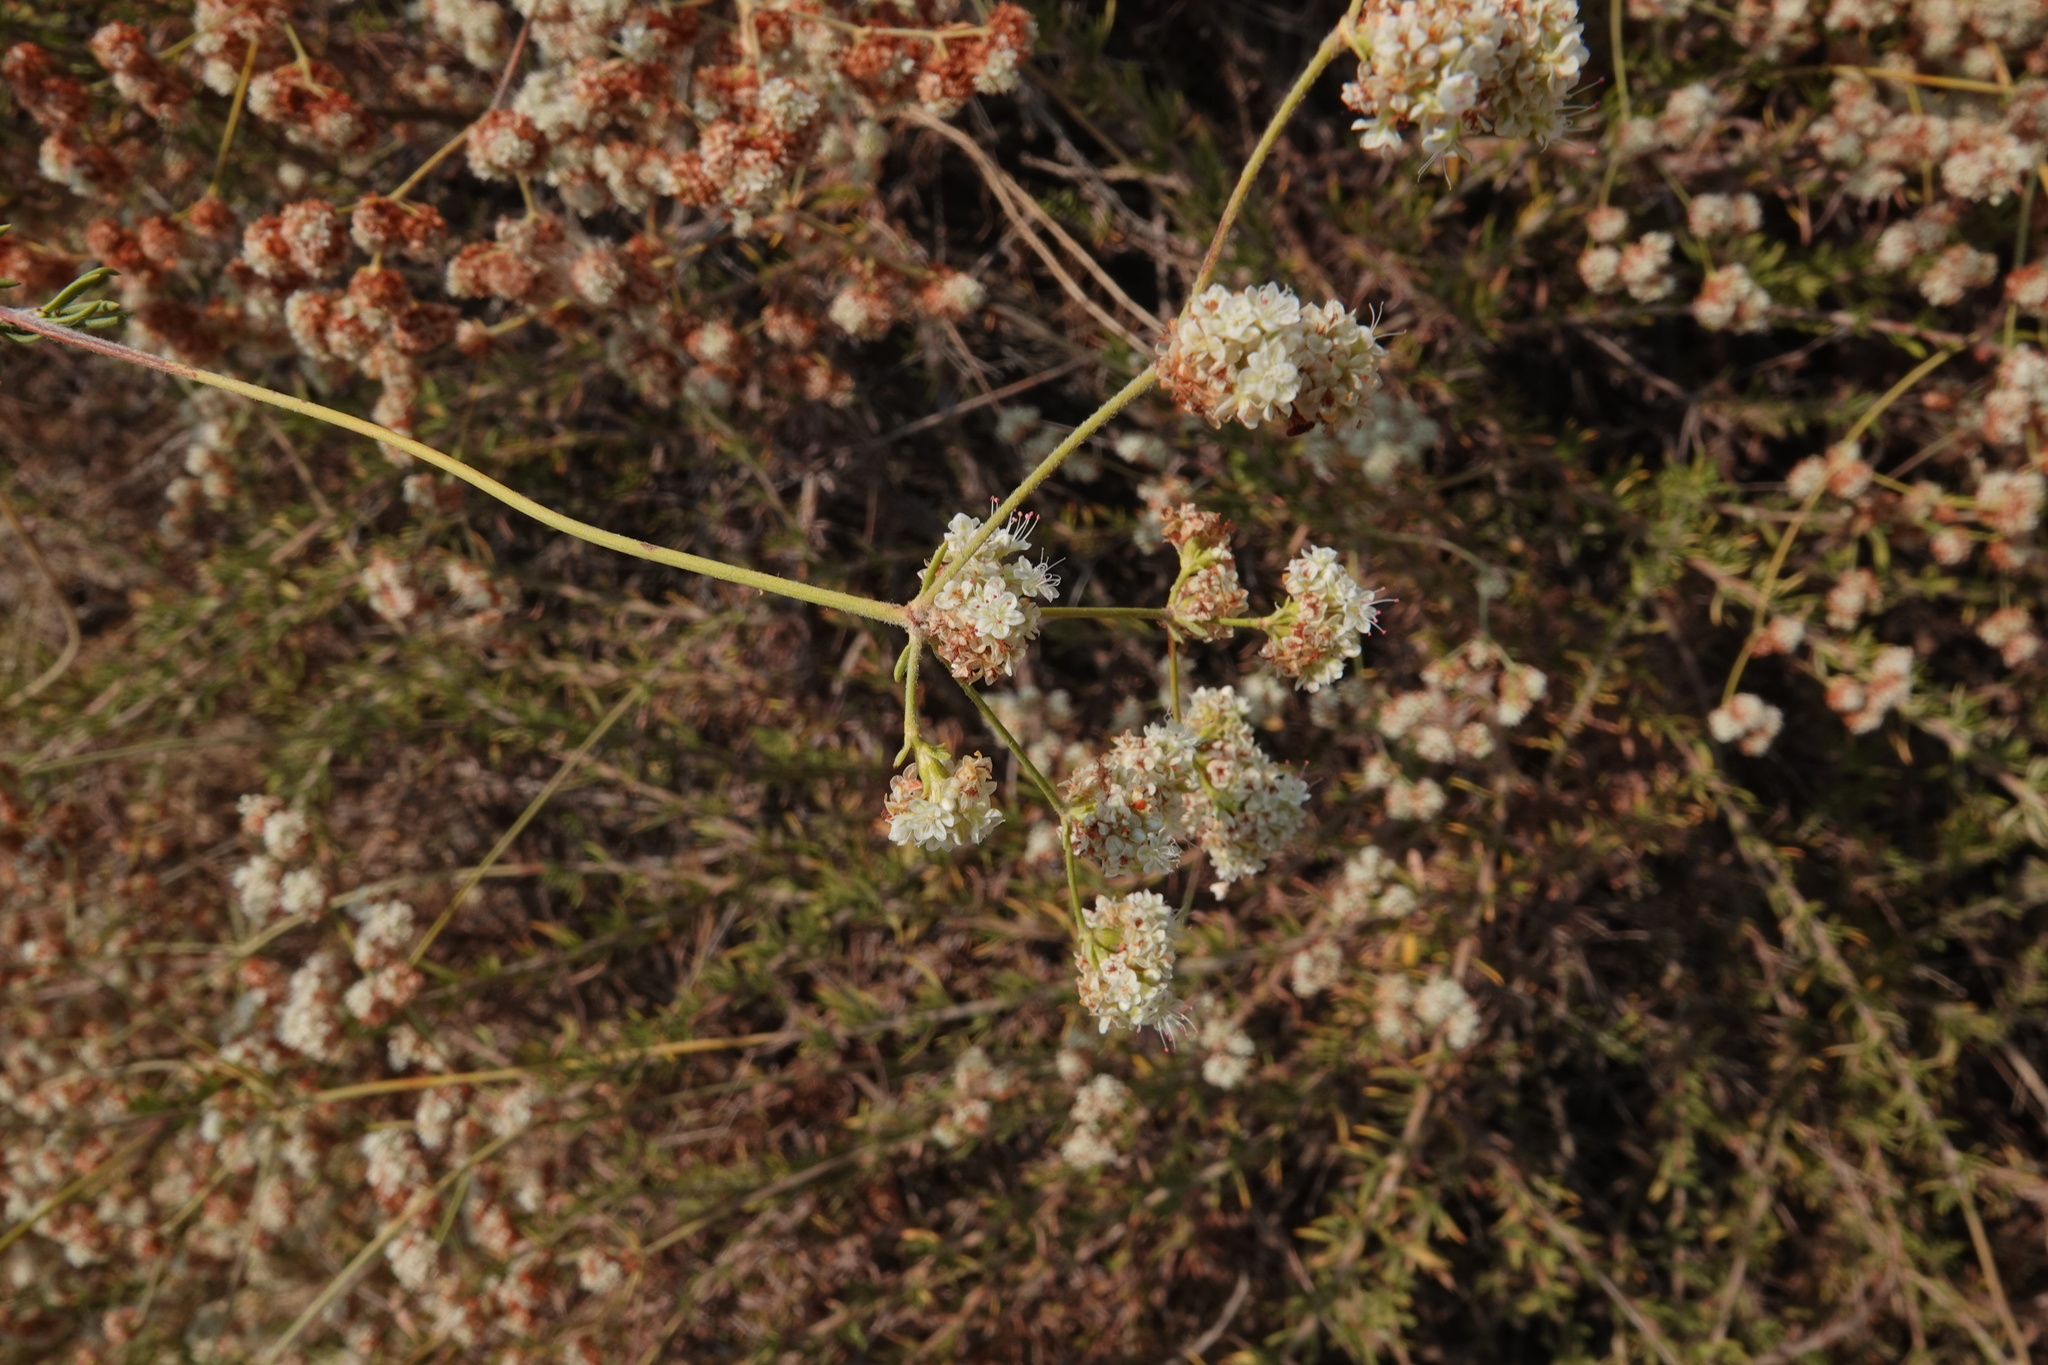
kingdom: Plantae
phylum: Tracheophyta
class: Magnoliopsida
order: Caryophyllales
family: Polygonaceae
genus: Eriogonum
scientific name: Eriogonum fasciculatum
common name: California wild buckwheat
